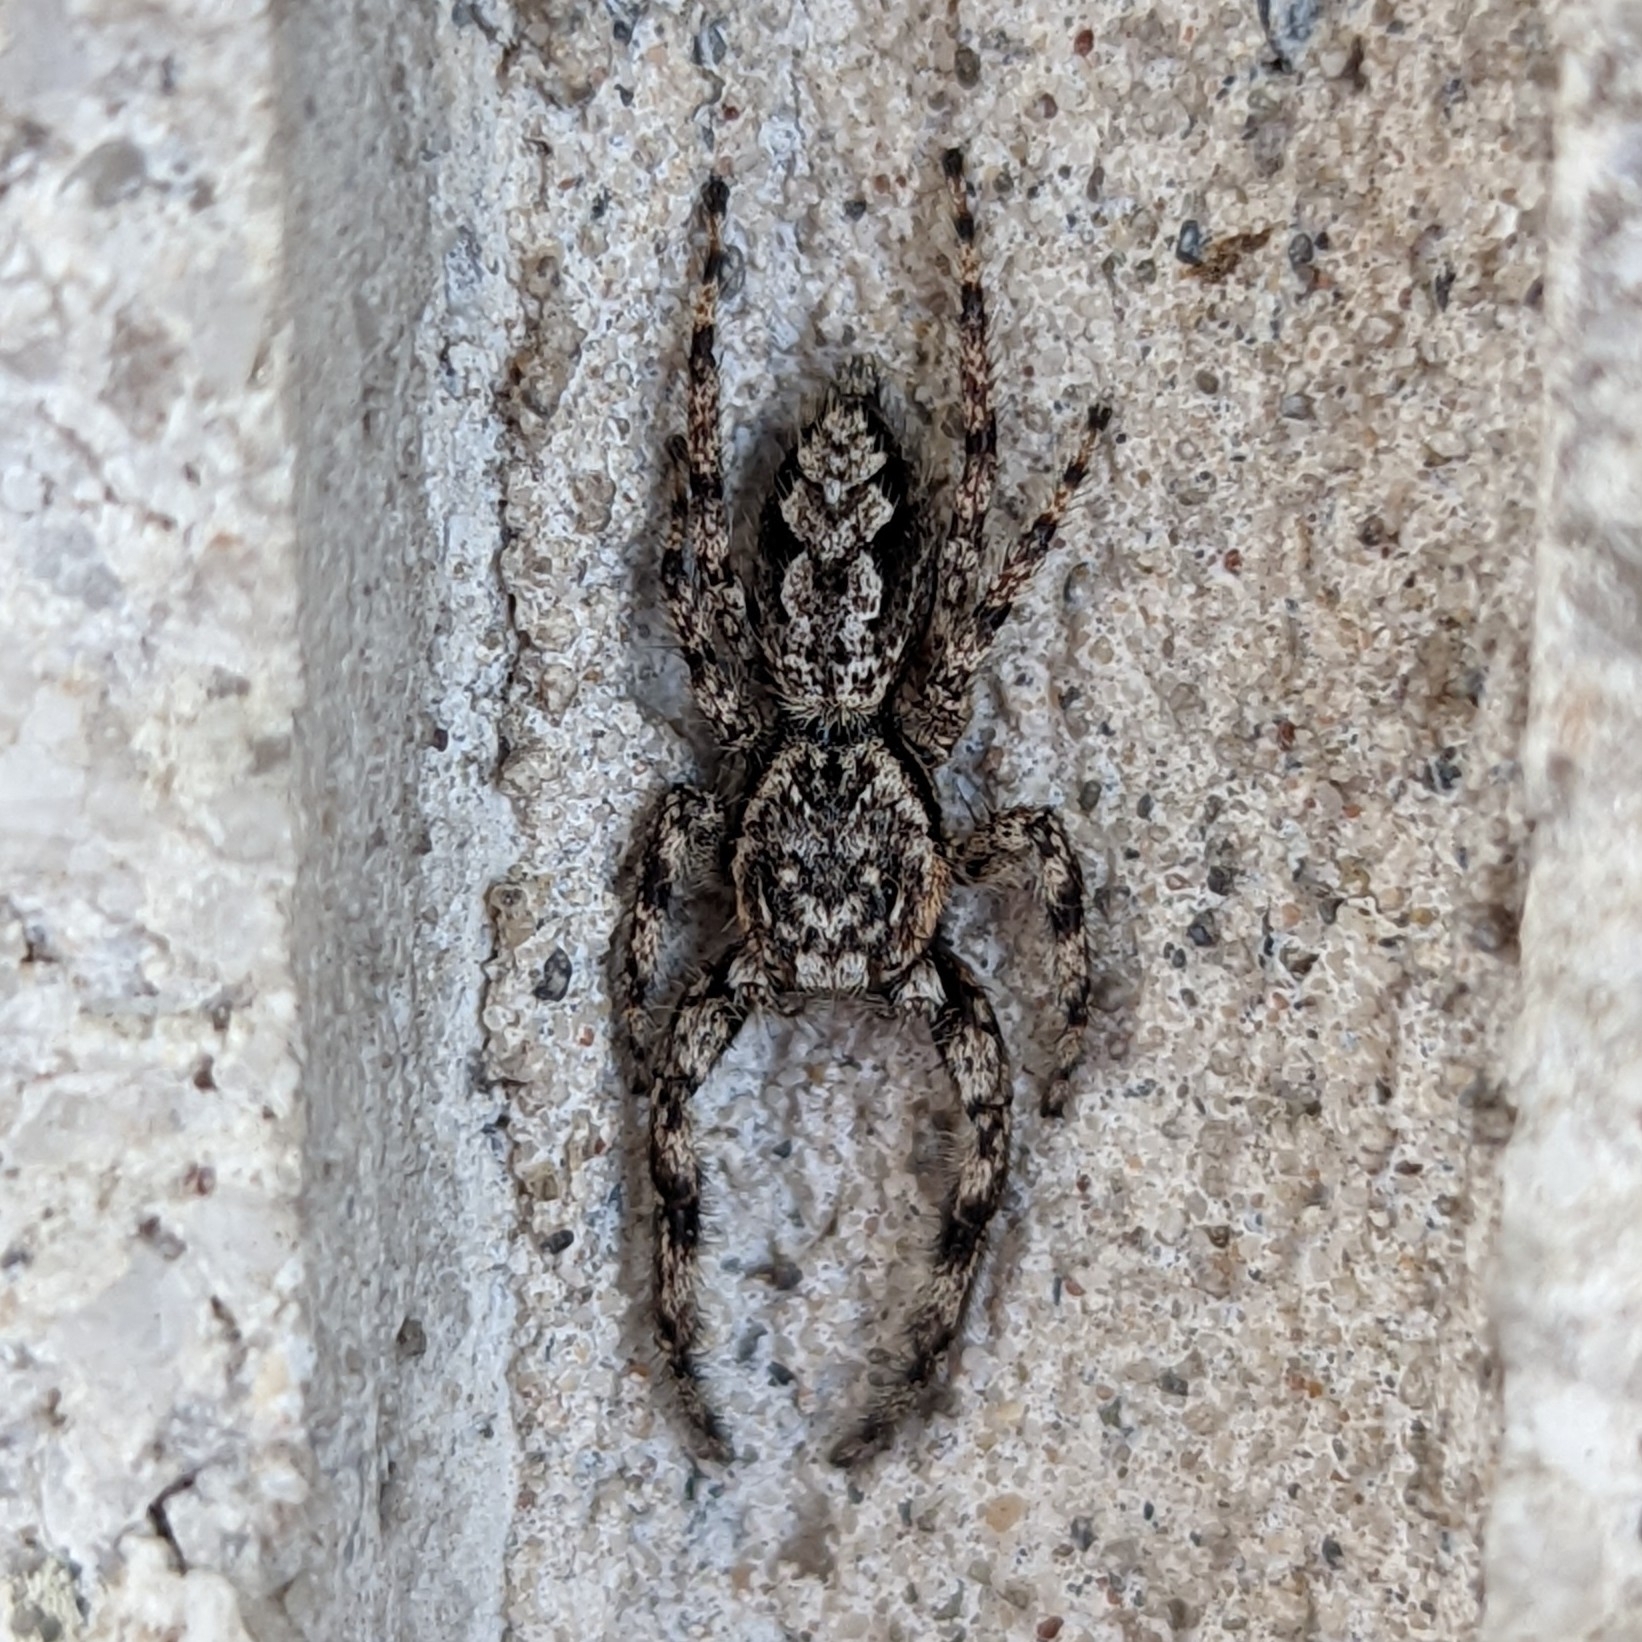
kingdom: Animalia
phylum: Arthropoda
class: Arachnida
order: Araneae
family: Salticidae
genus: Platycryptus
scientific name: Platycryptus undatus
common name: Tan jumping spider
